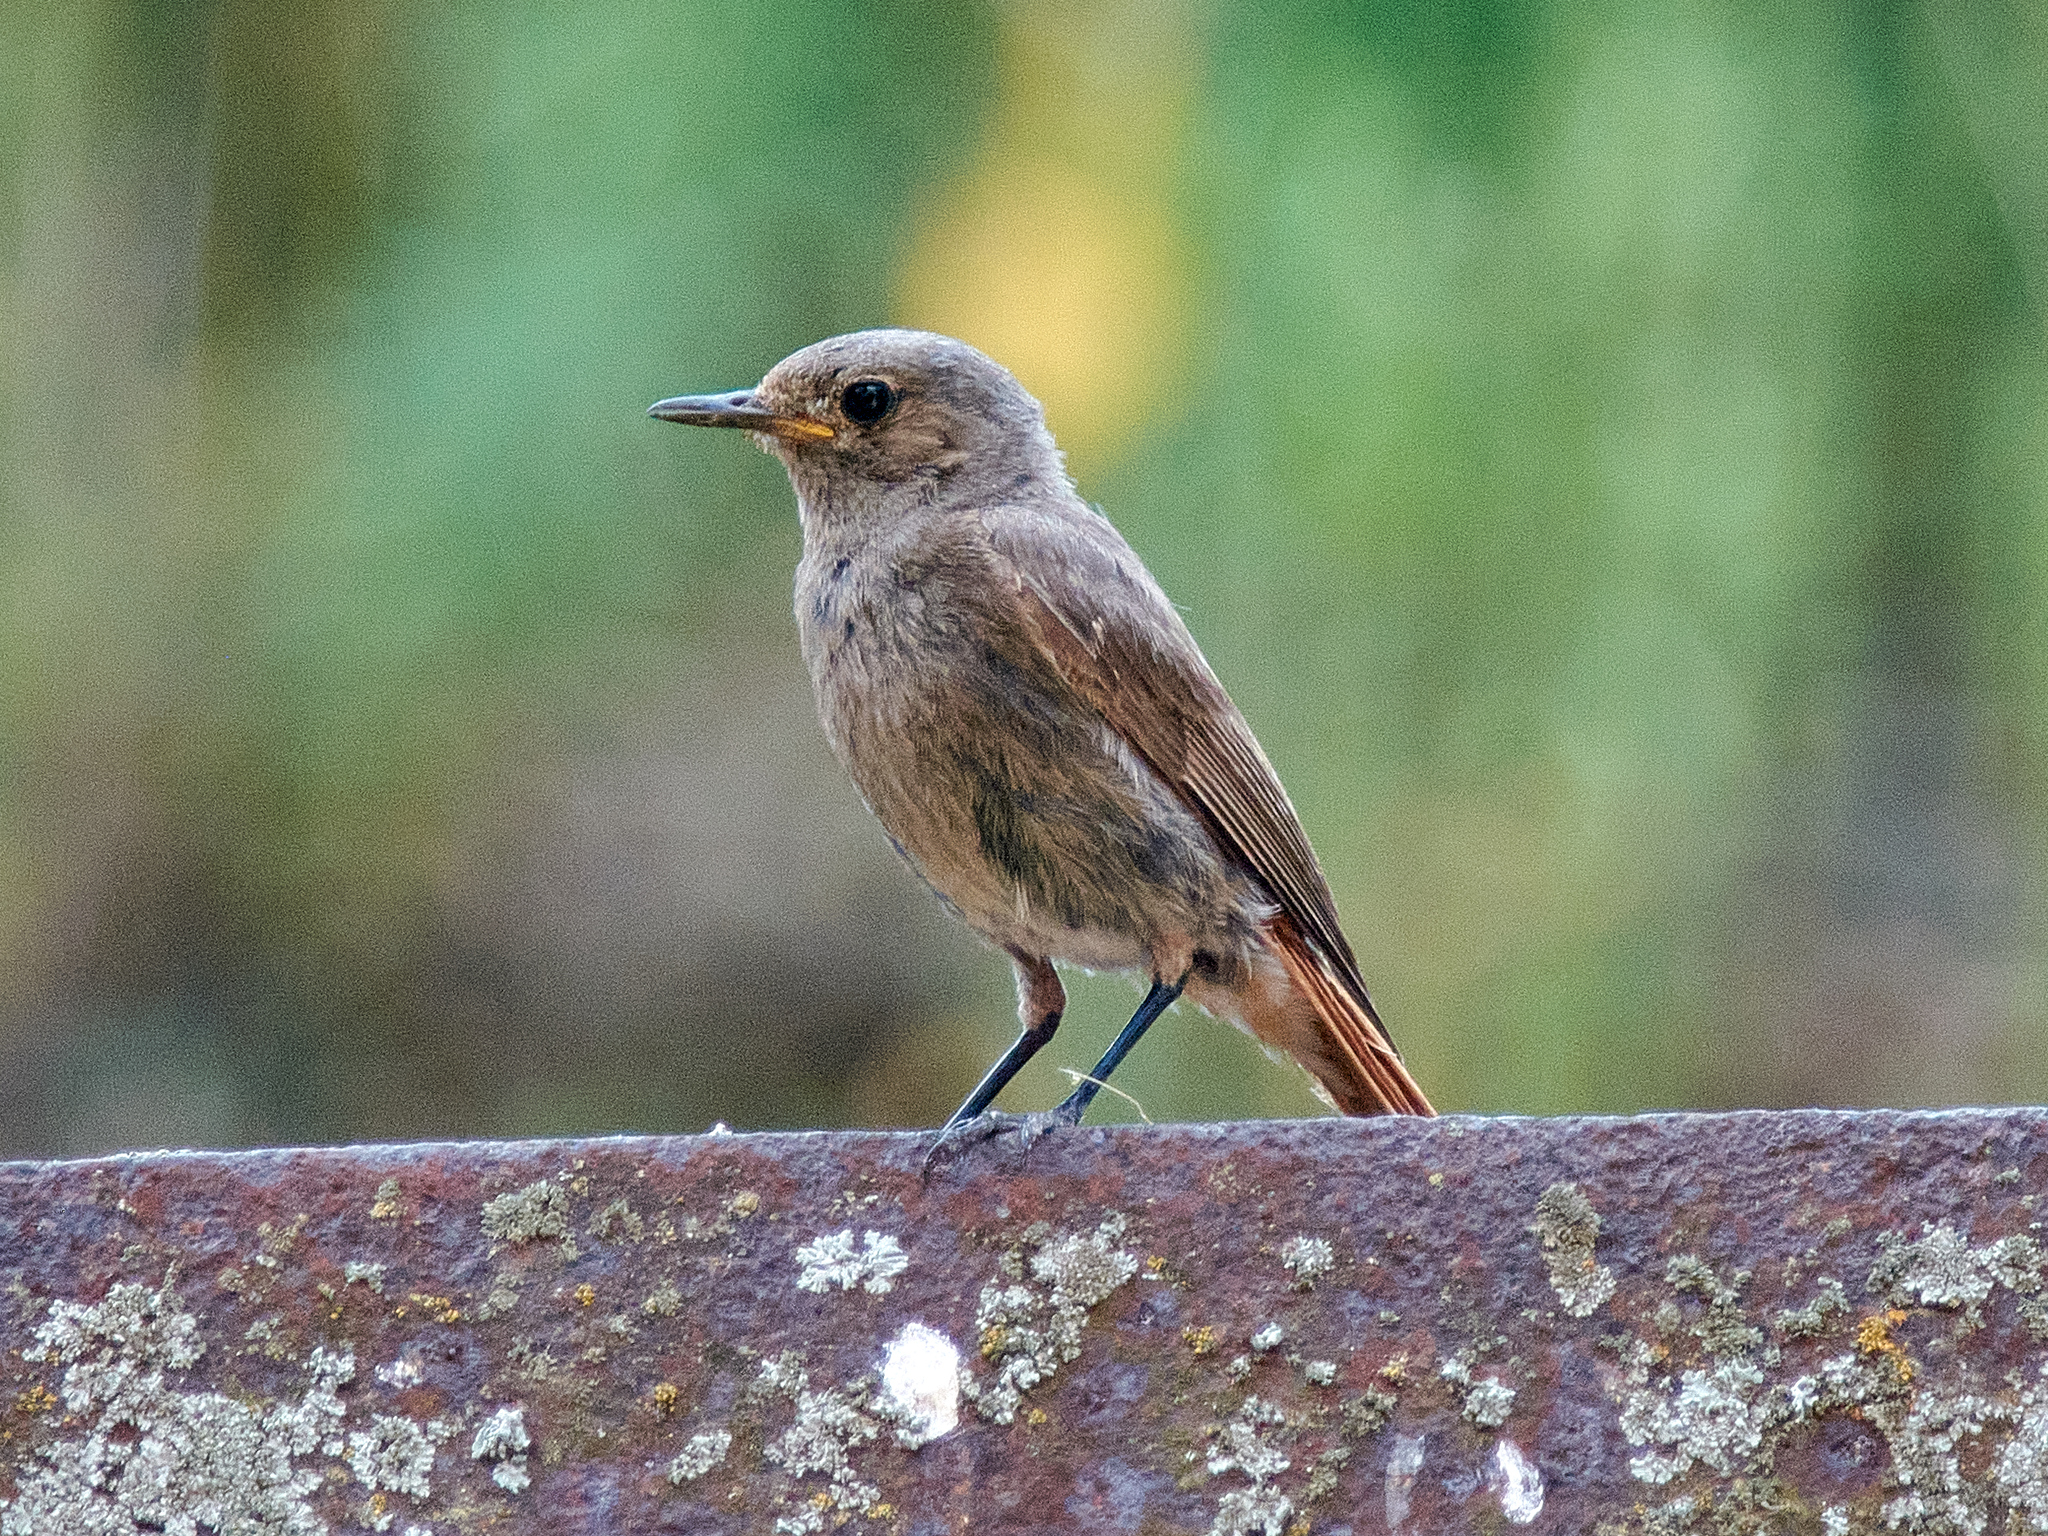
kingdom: Animalia
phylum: Chordata
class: Aves
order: Passeriformes
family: Muscicapidae
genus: Phoenicurus
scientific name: Phoenicurus ochruros
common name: Black redstart
